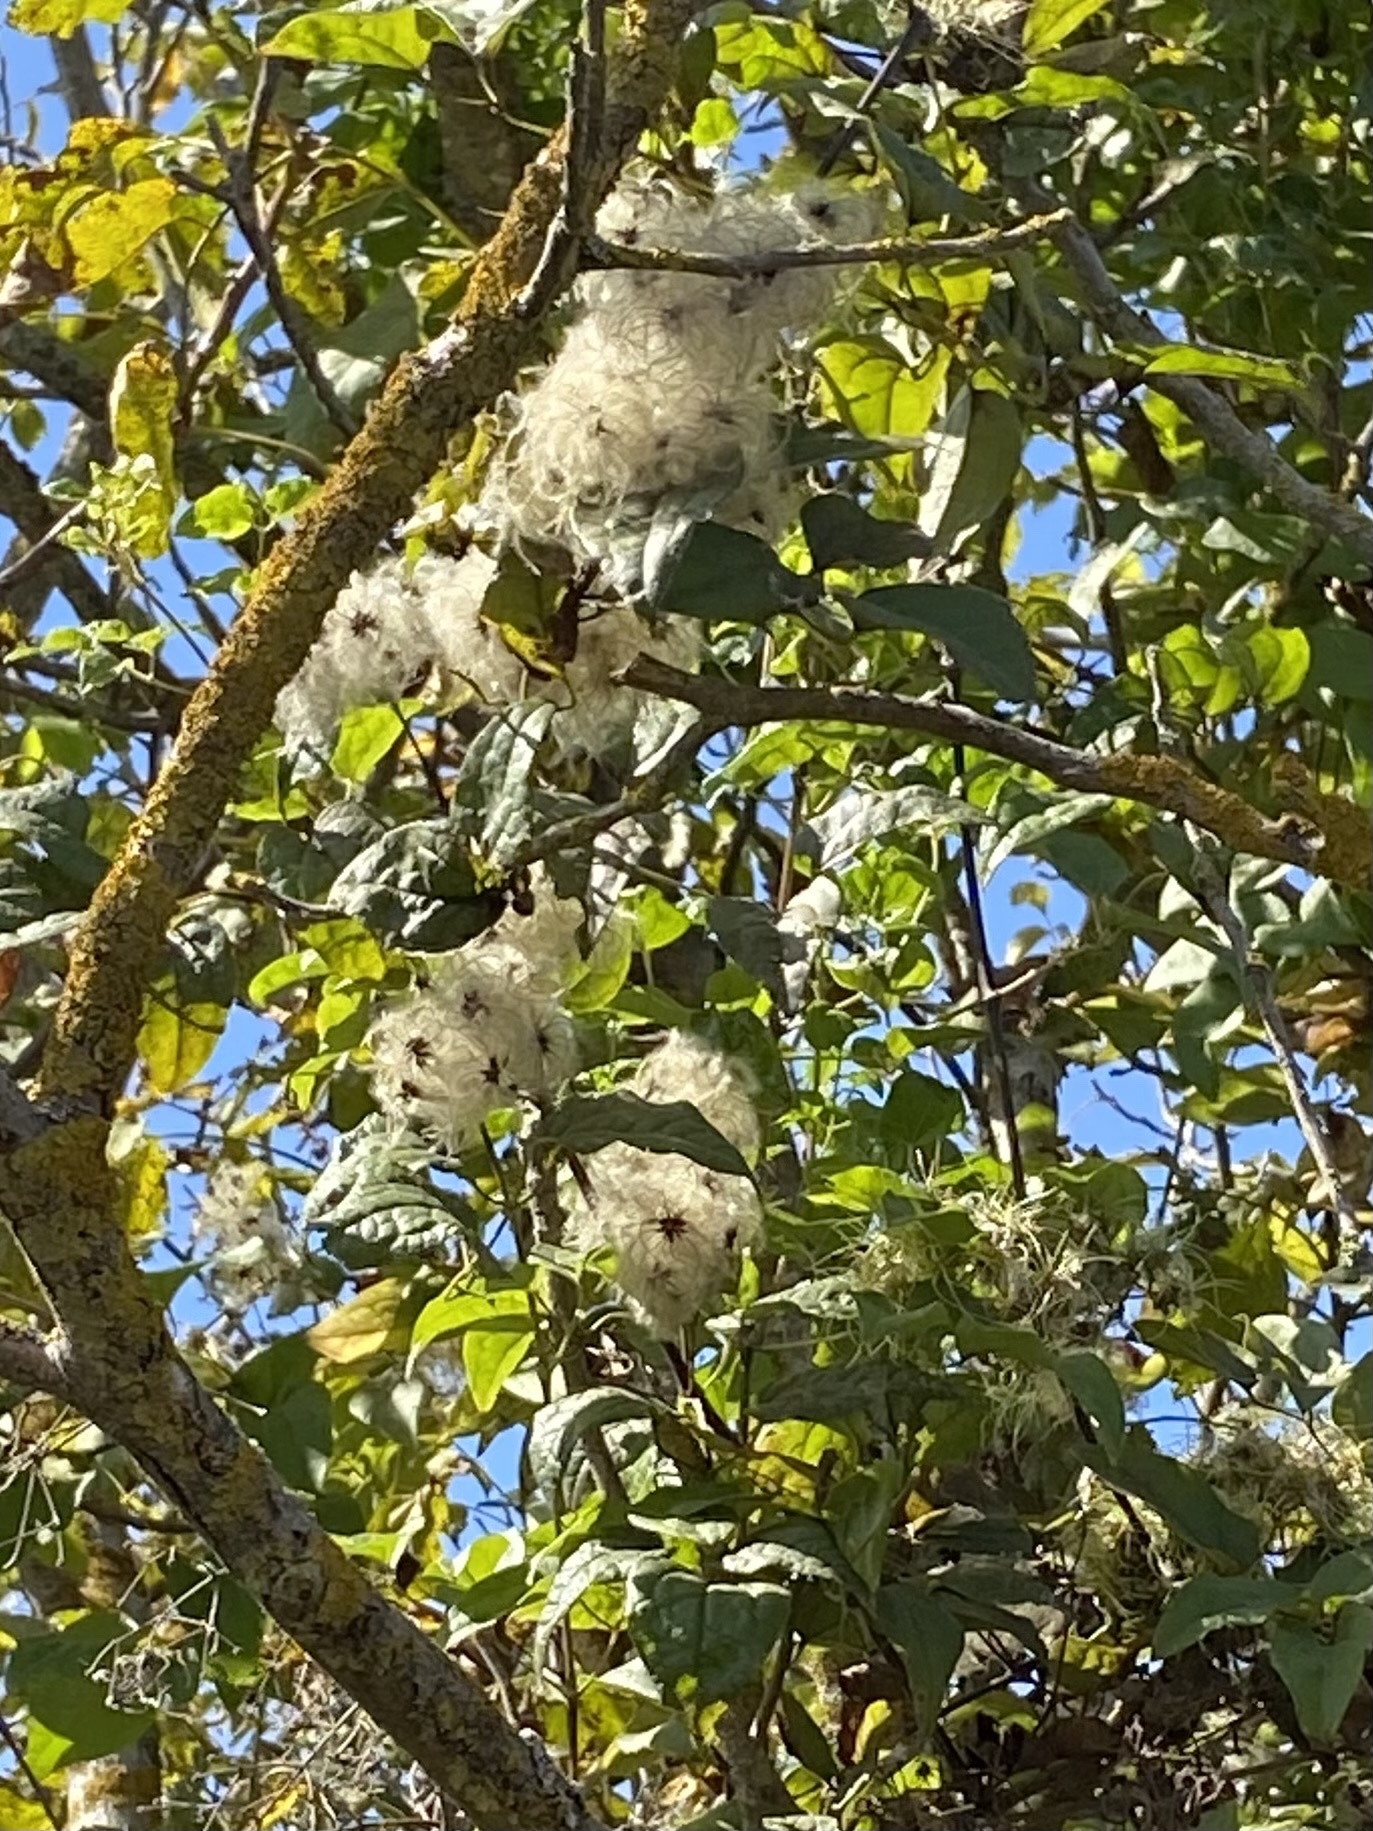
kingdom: Plantae
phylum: Tracheophyta
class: Magnoliopsida
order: Ranunculales
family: Ranunculaceae
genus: Clematis
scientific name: Clematis vitalba
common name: Evergreen clematis
